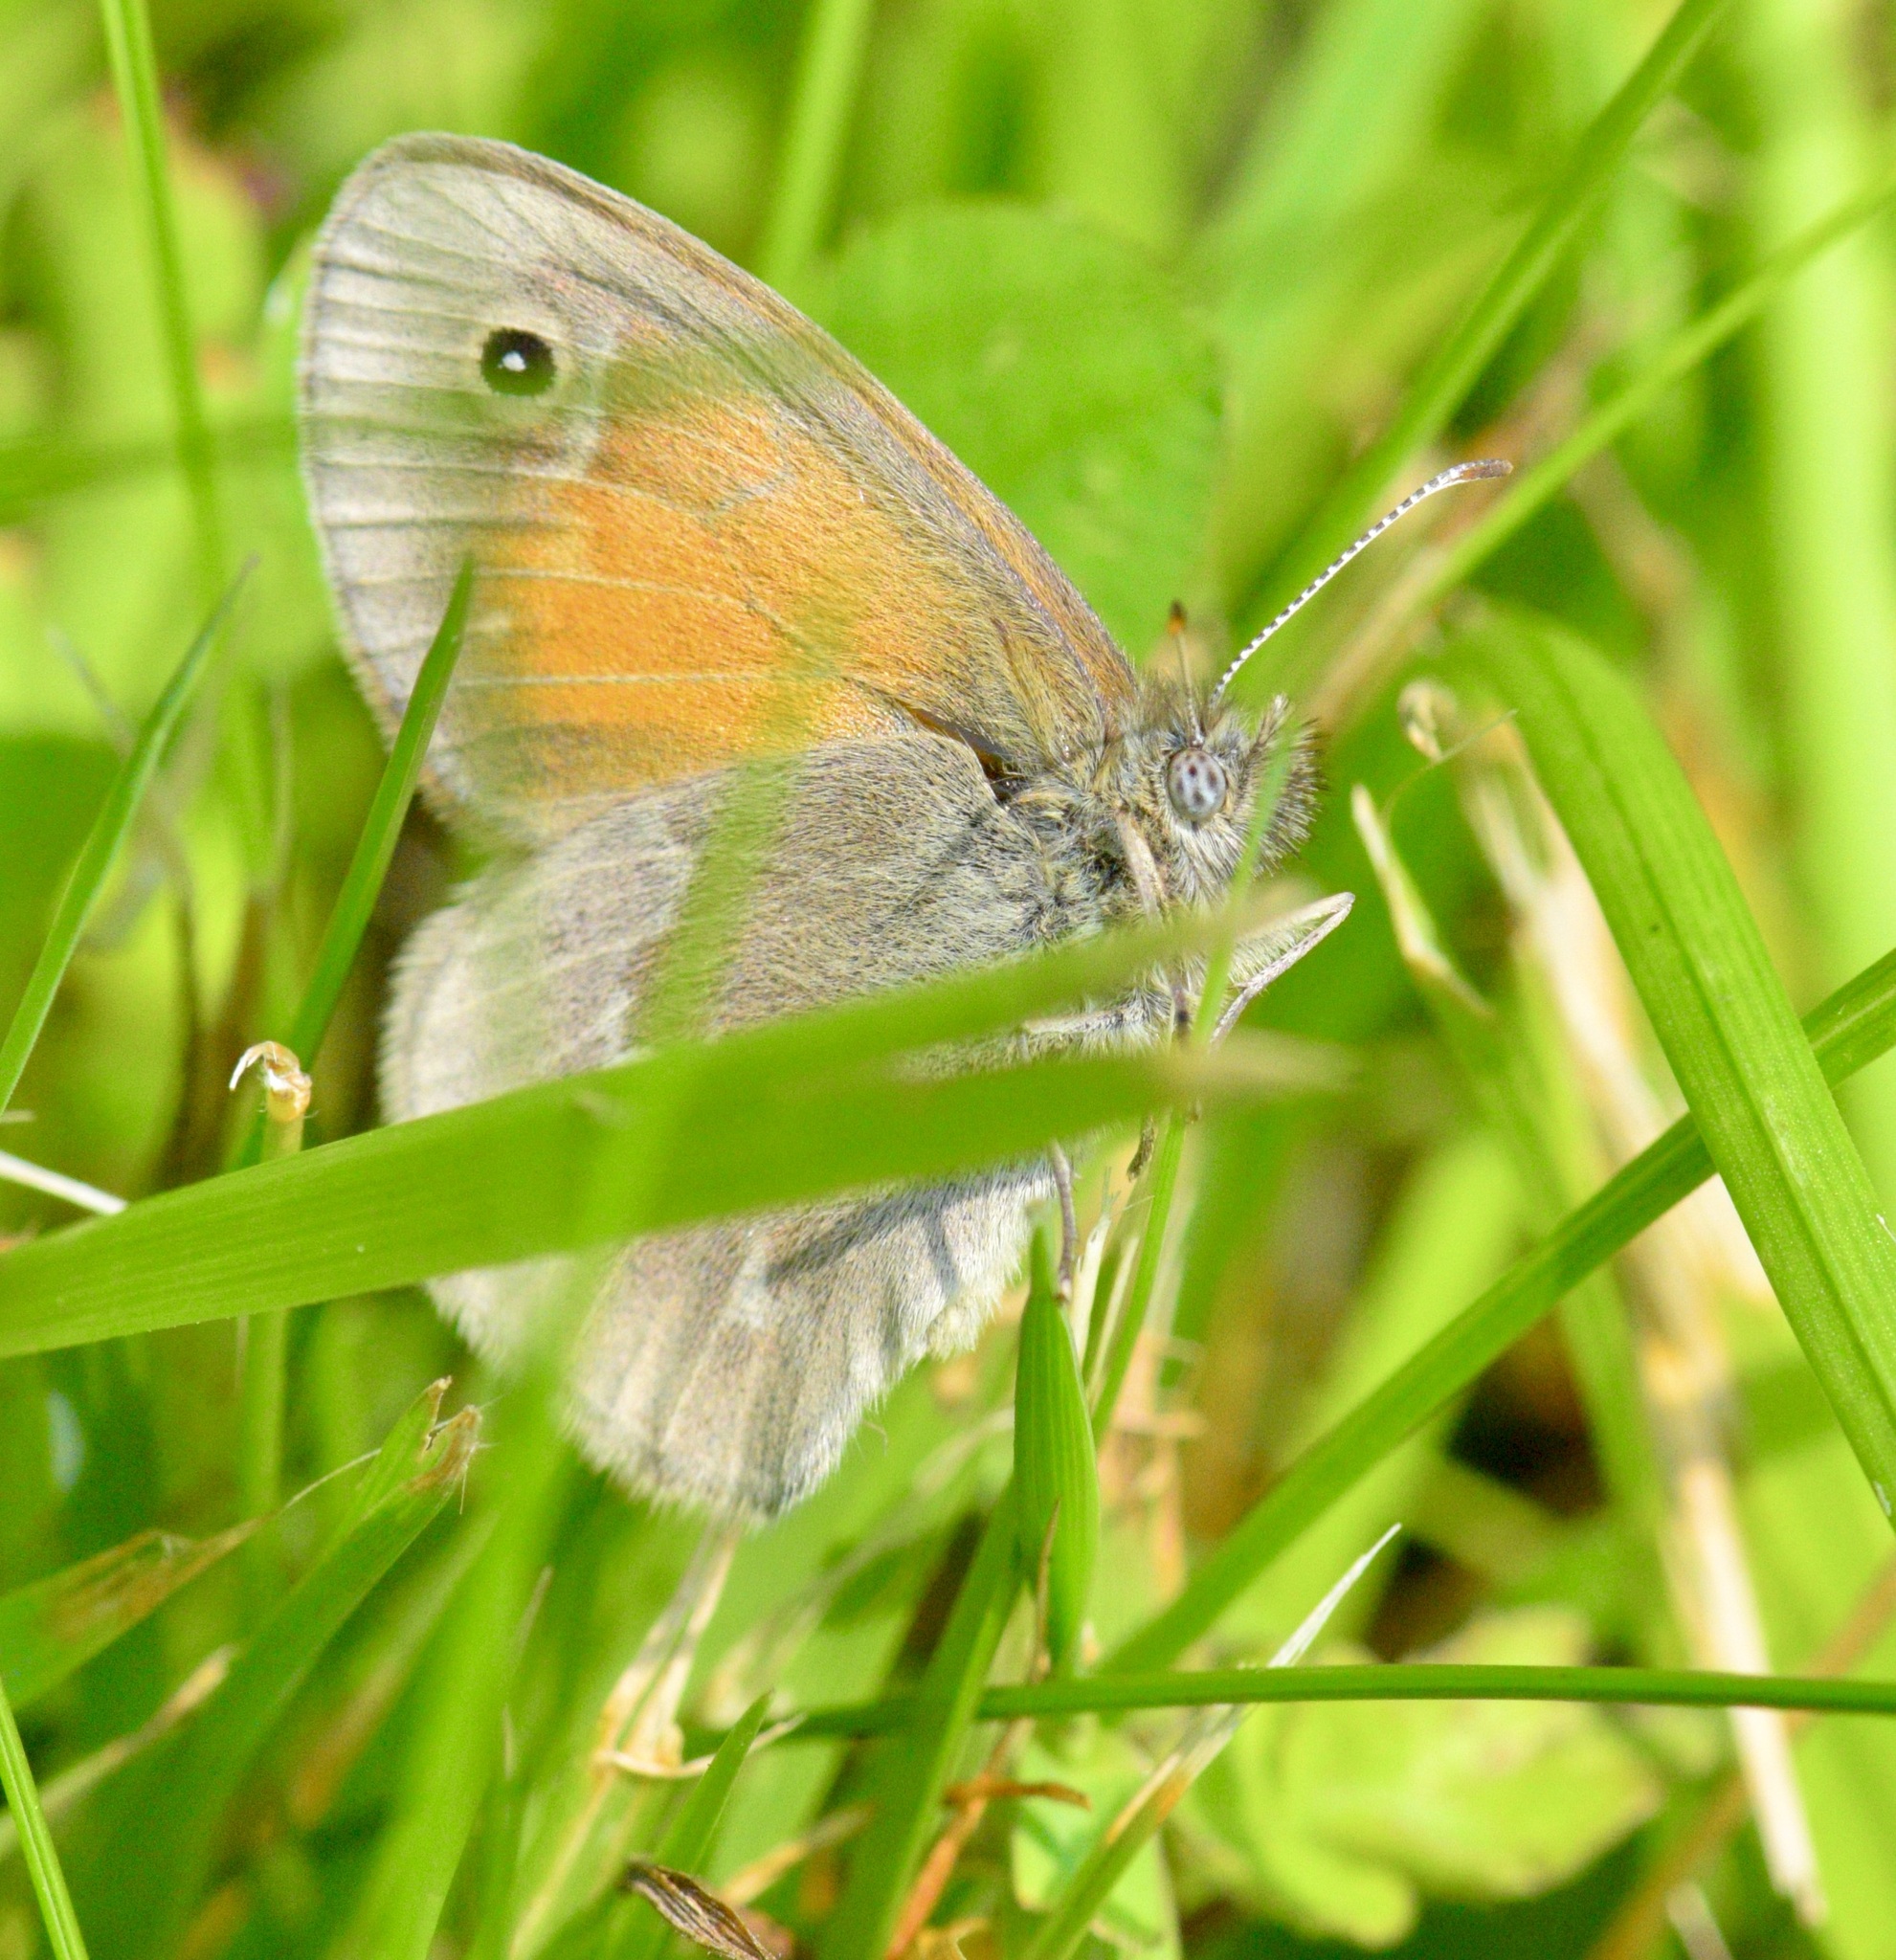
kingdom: Animalia
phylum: Arthropoda
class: Insecta
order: Lepidoptera
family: Nymphalidae
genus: Coenonympha
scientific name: Coenonympha california
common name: Common ringlet
